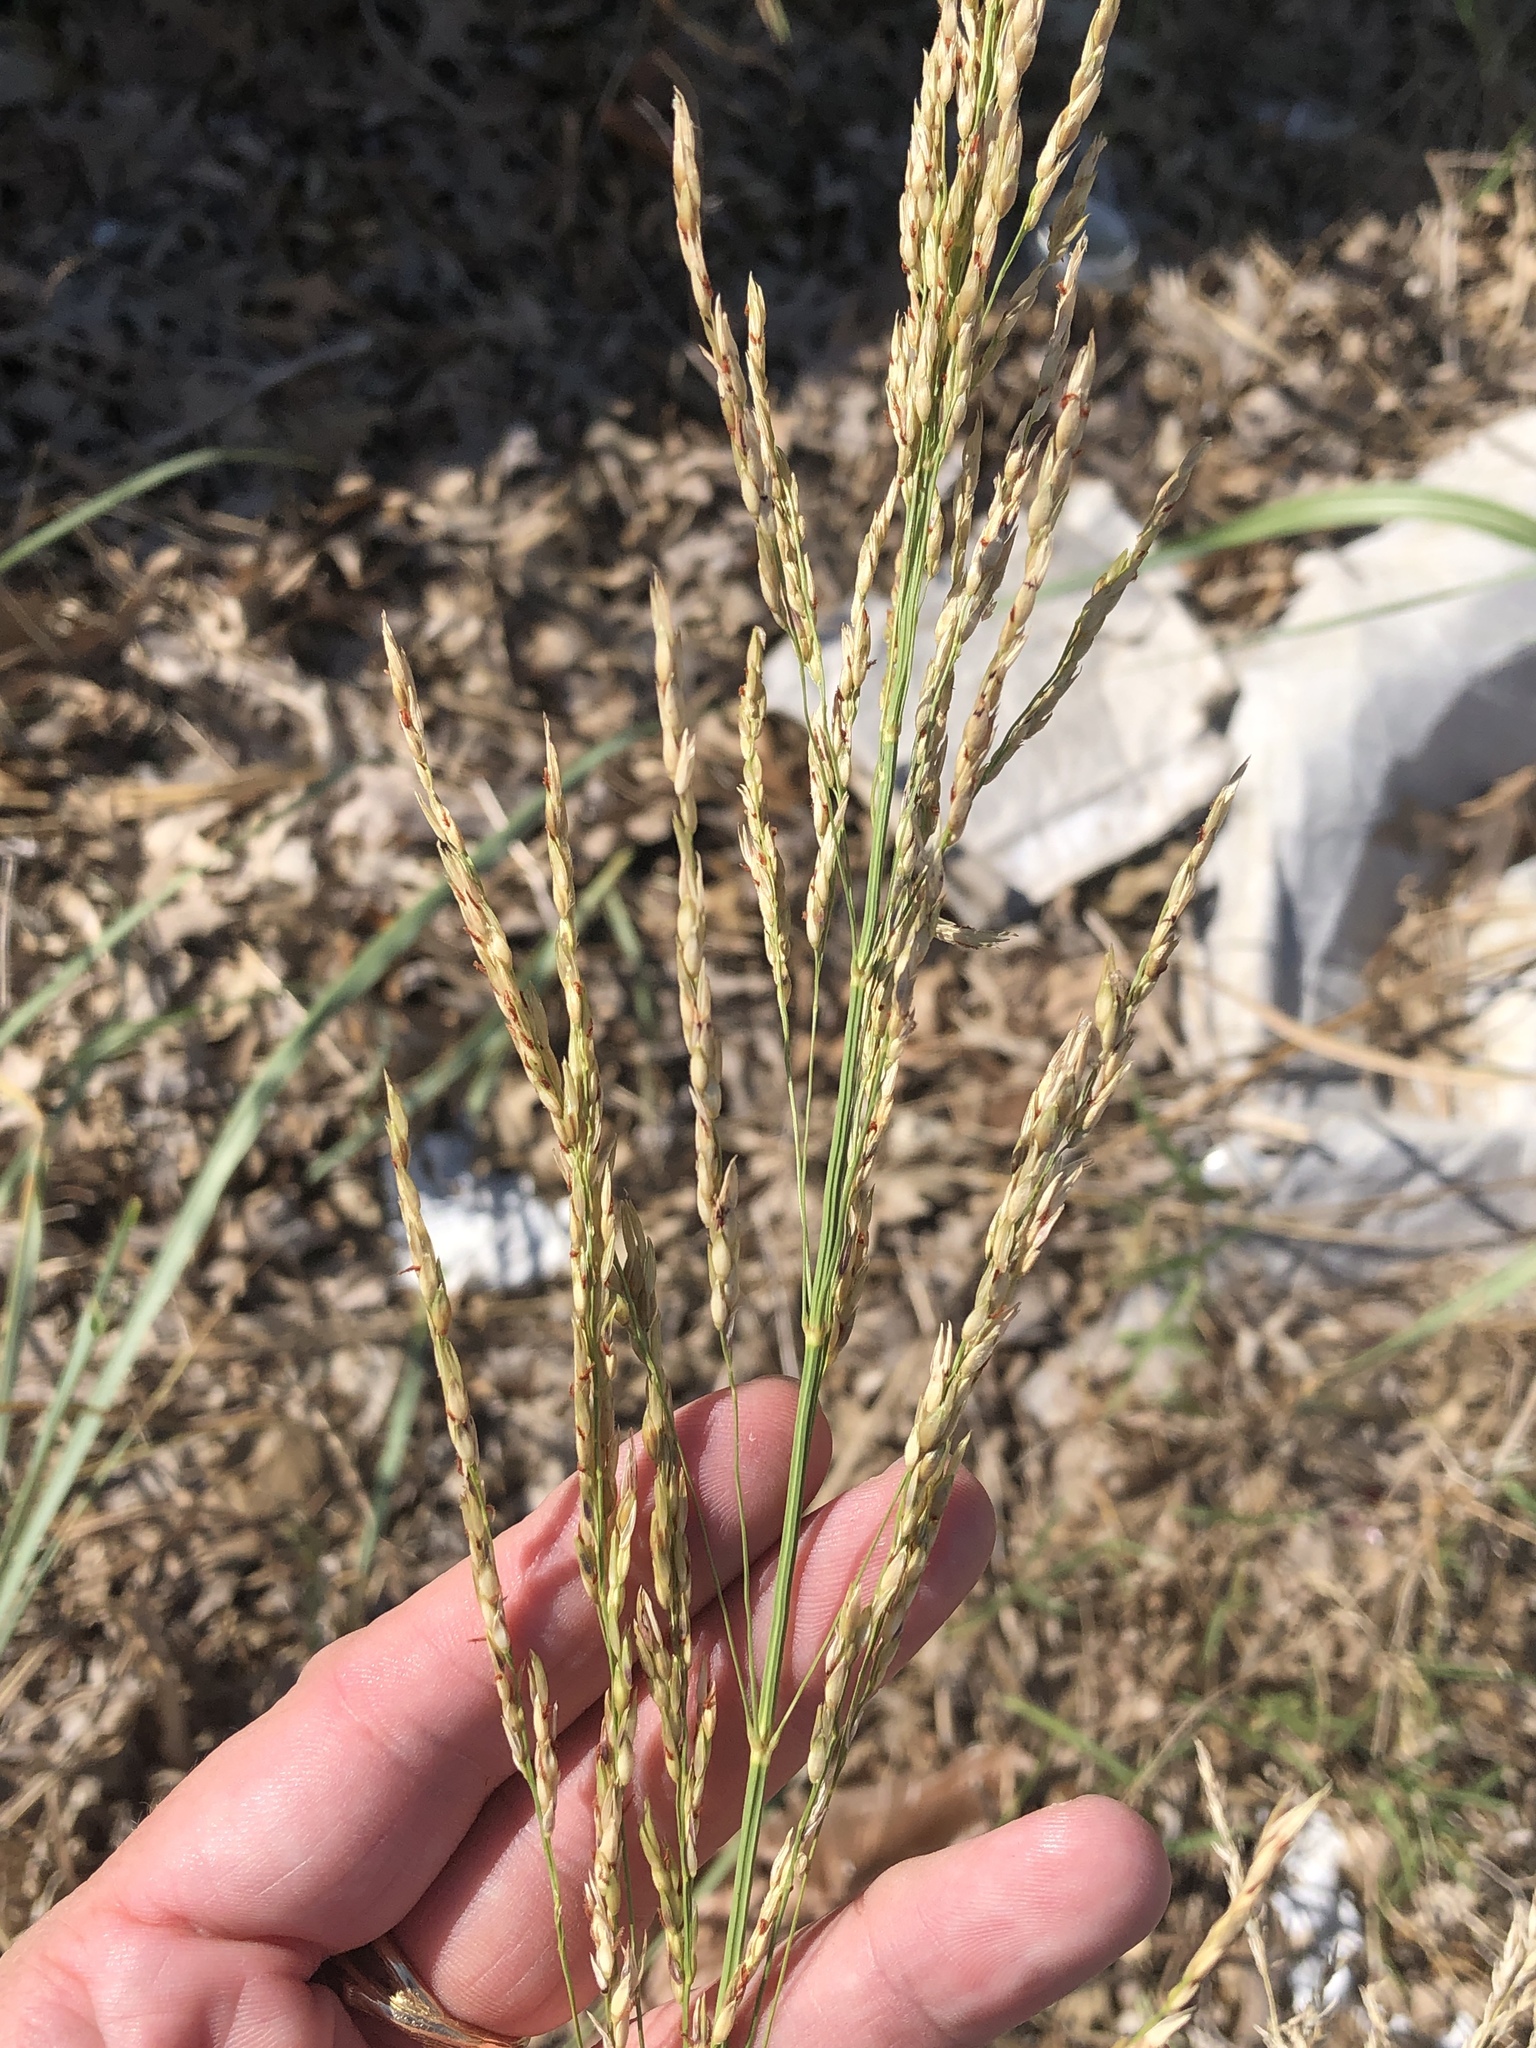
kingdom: Plantae
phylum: Tracheophyta
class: Liliopsida
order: Poales
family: Poaceae
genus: Sorghum
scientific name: Sorghum halepense
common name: Johnson-grass
